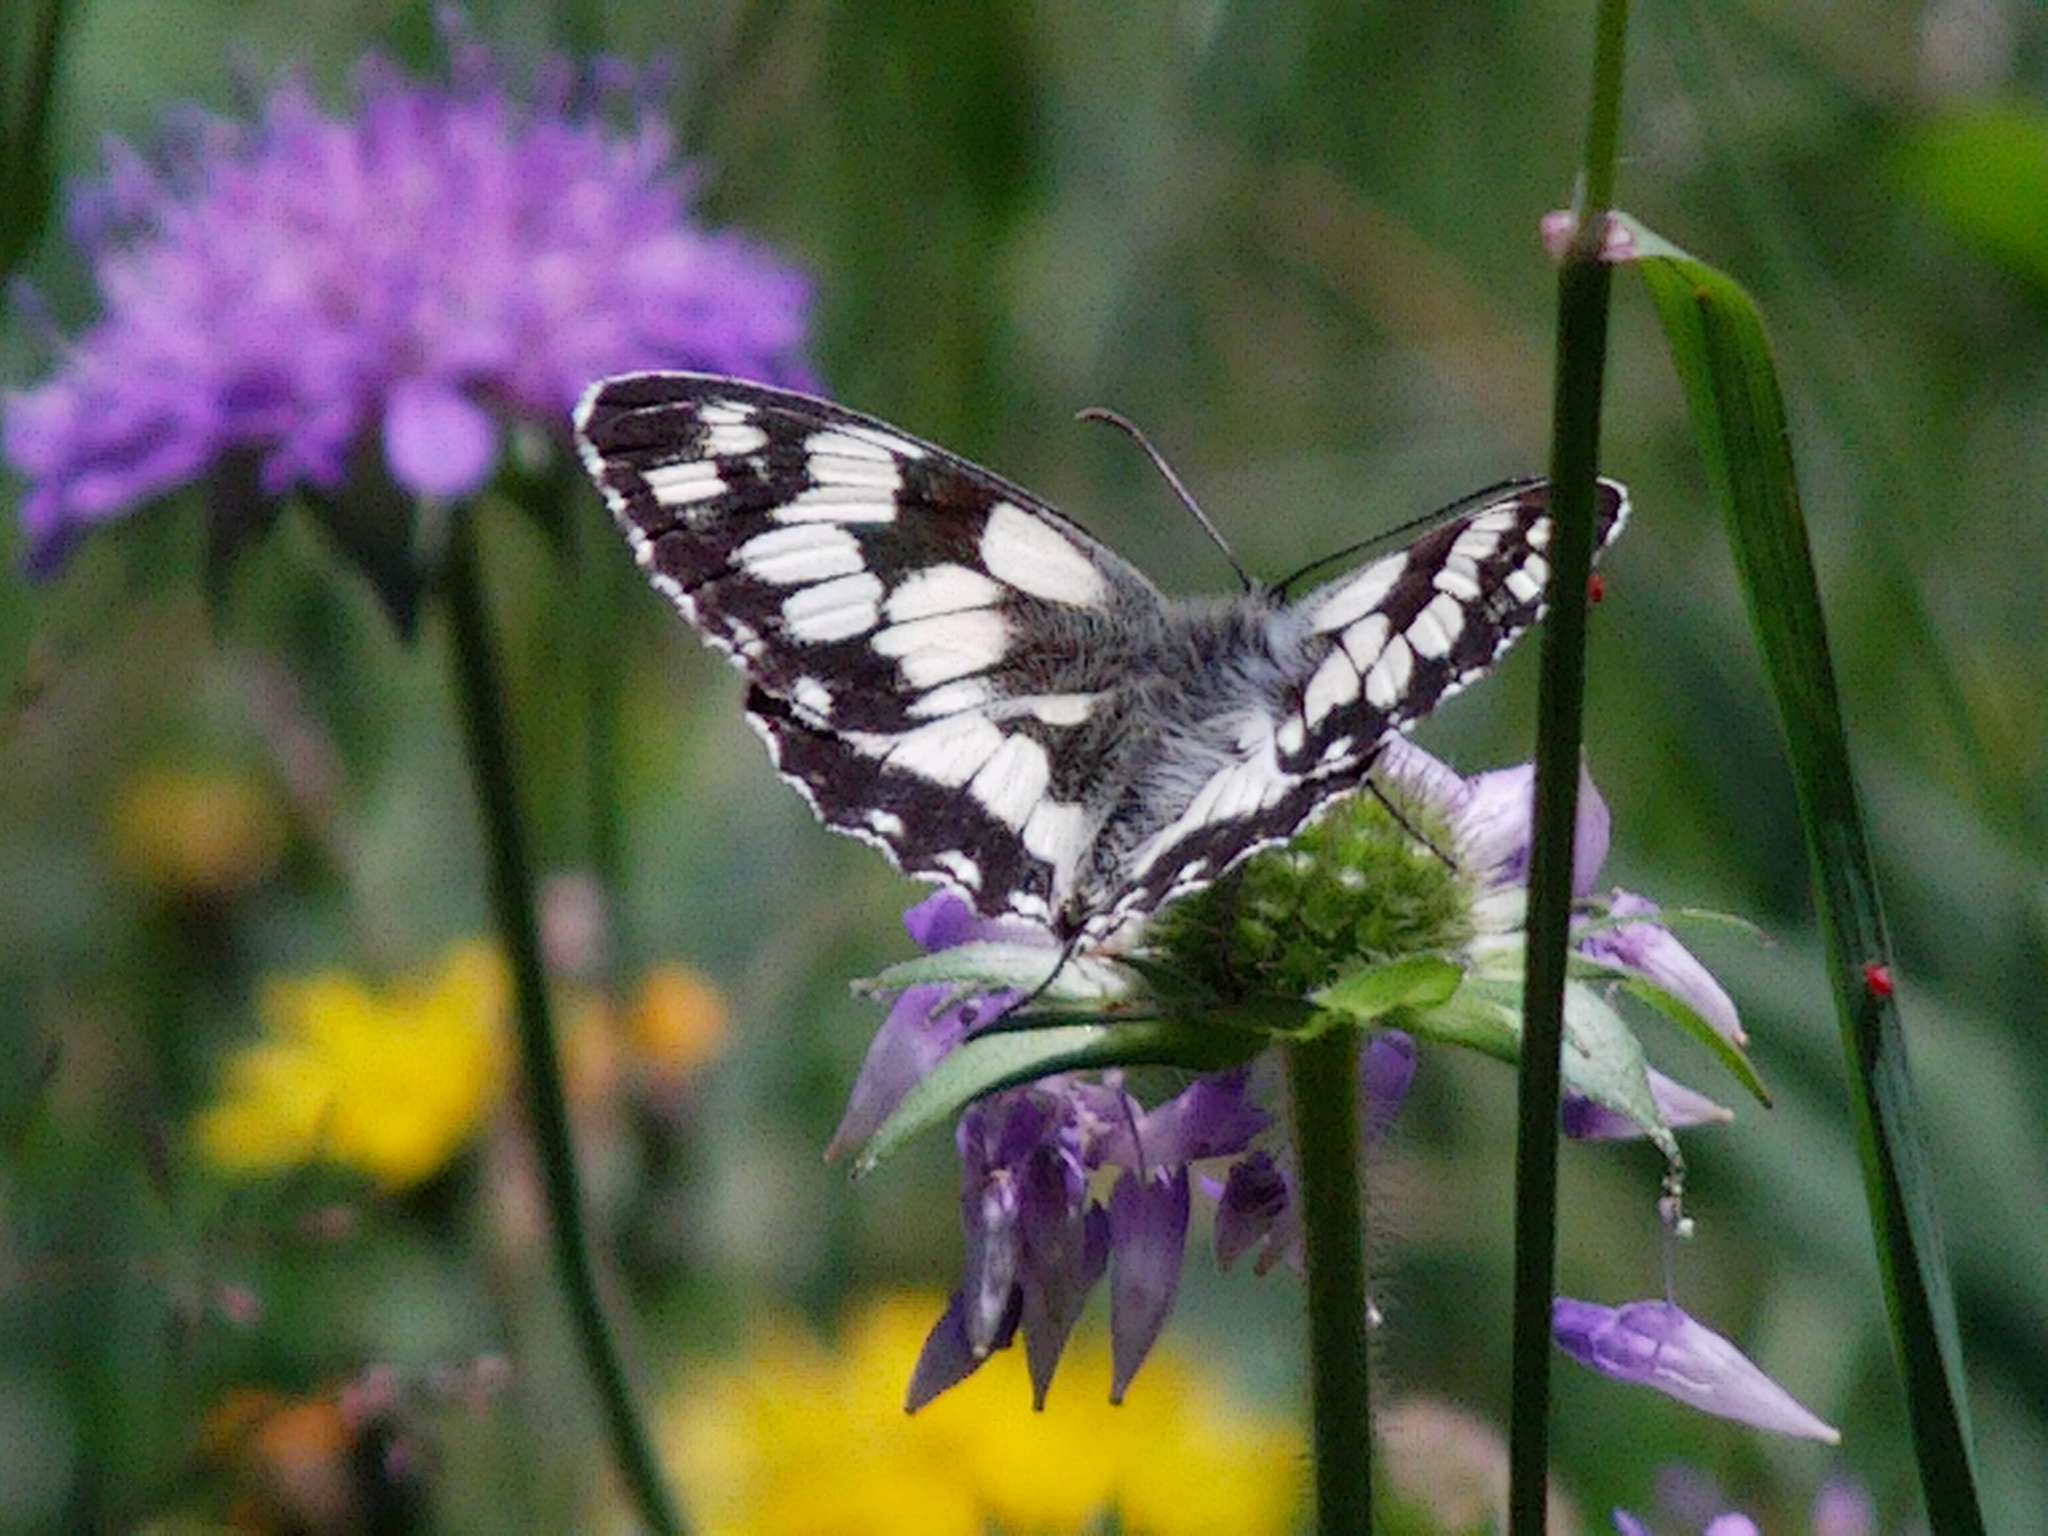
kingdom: Animalia
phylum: Arthropoda
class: Insecta
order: Lepidoptera
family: Nymphalidae
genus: Melanargia
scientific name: Melanargia galathea
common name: Marbled white
